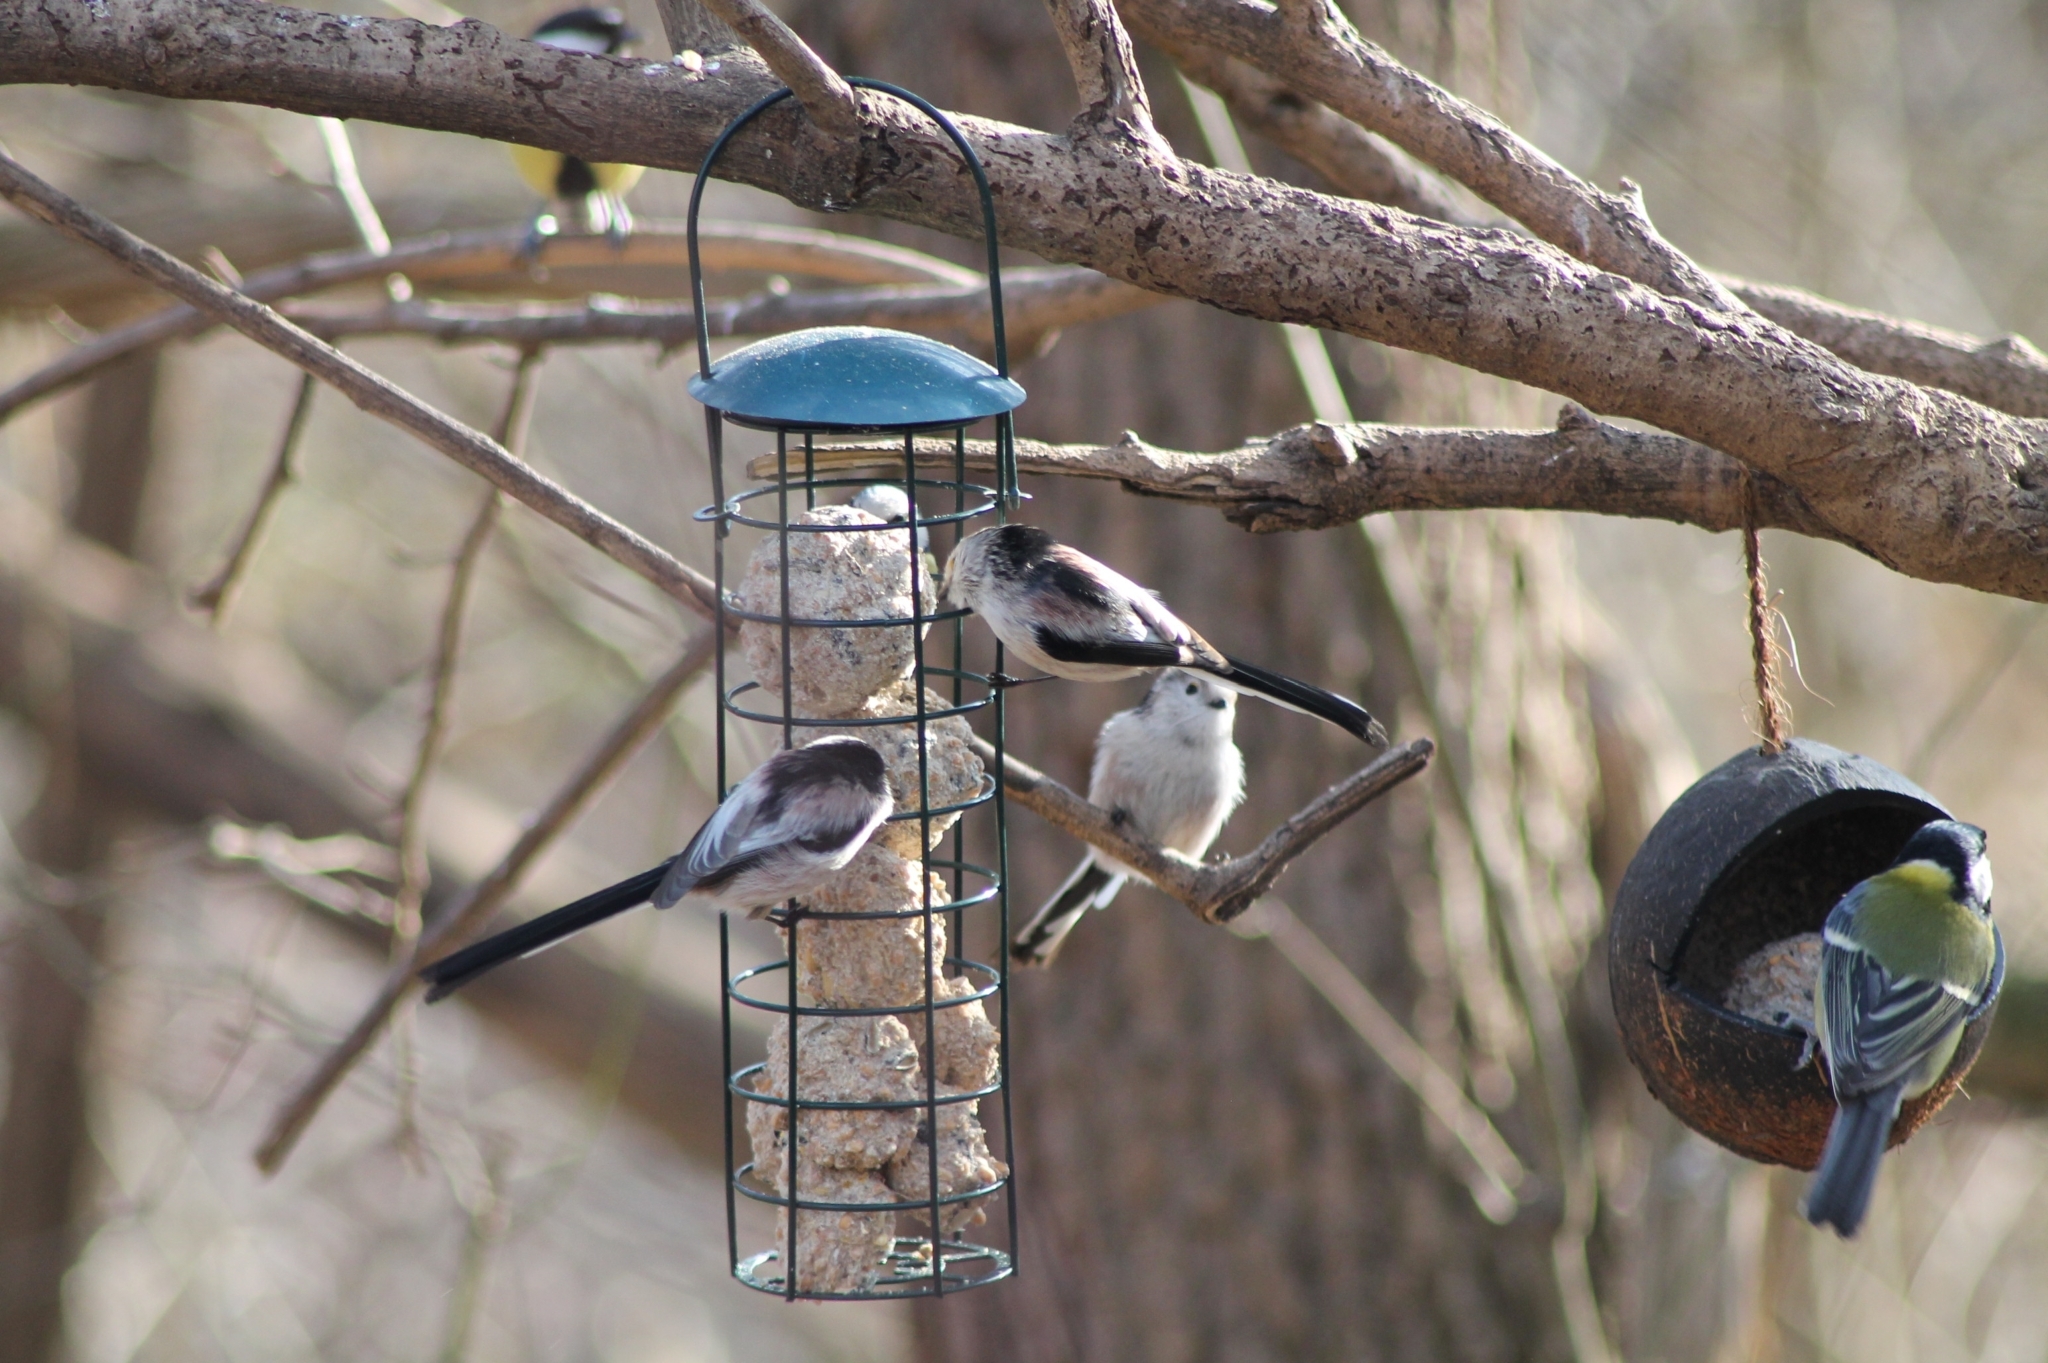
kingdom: Animalia
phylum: Chordata
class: Aves
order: Passeriformes
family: Aegithalidae
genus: Aegithalos
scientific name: Aegithalos caudatus
